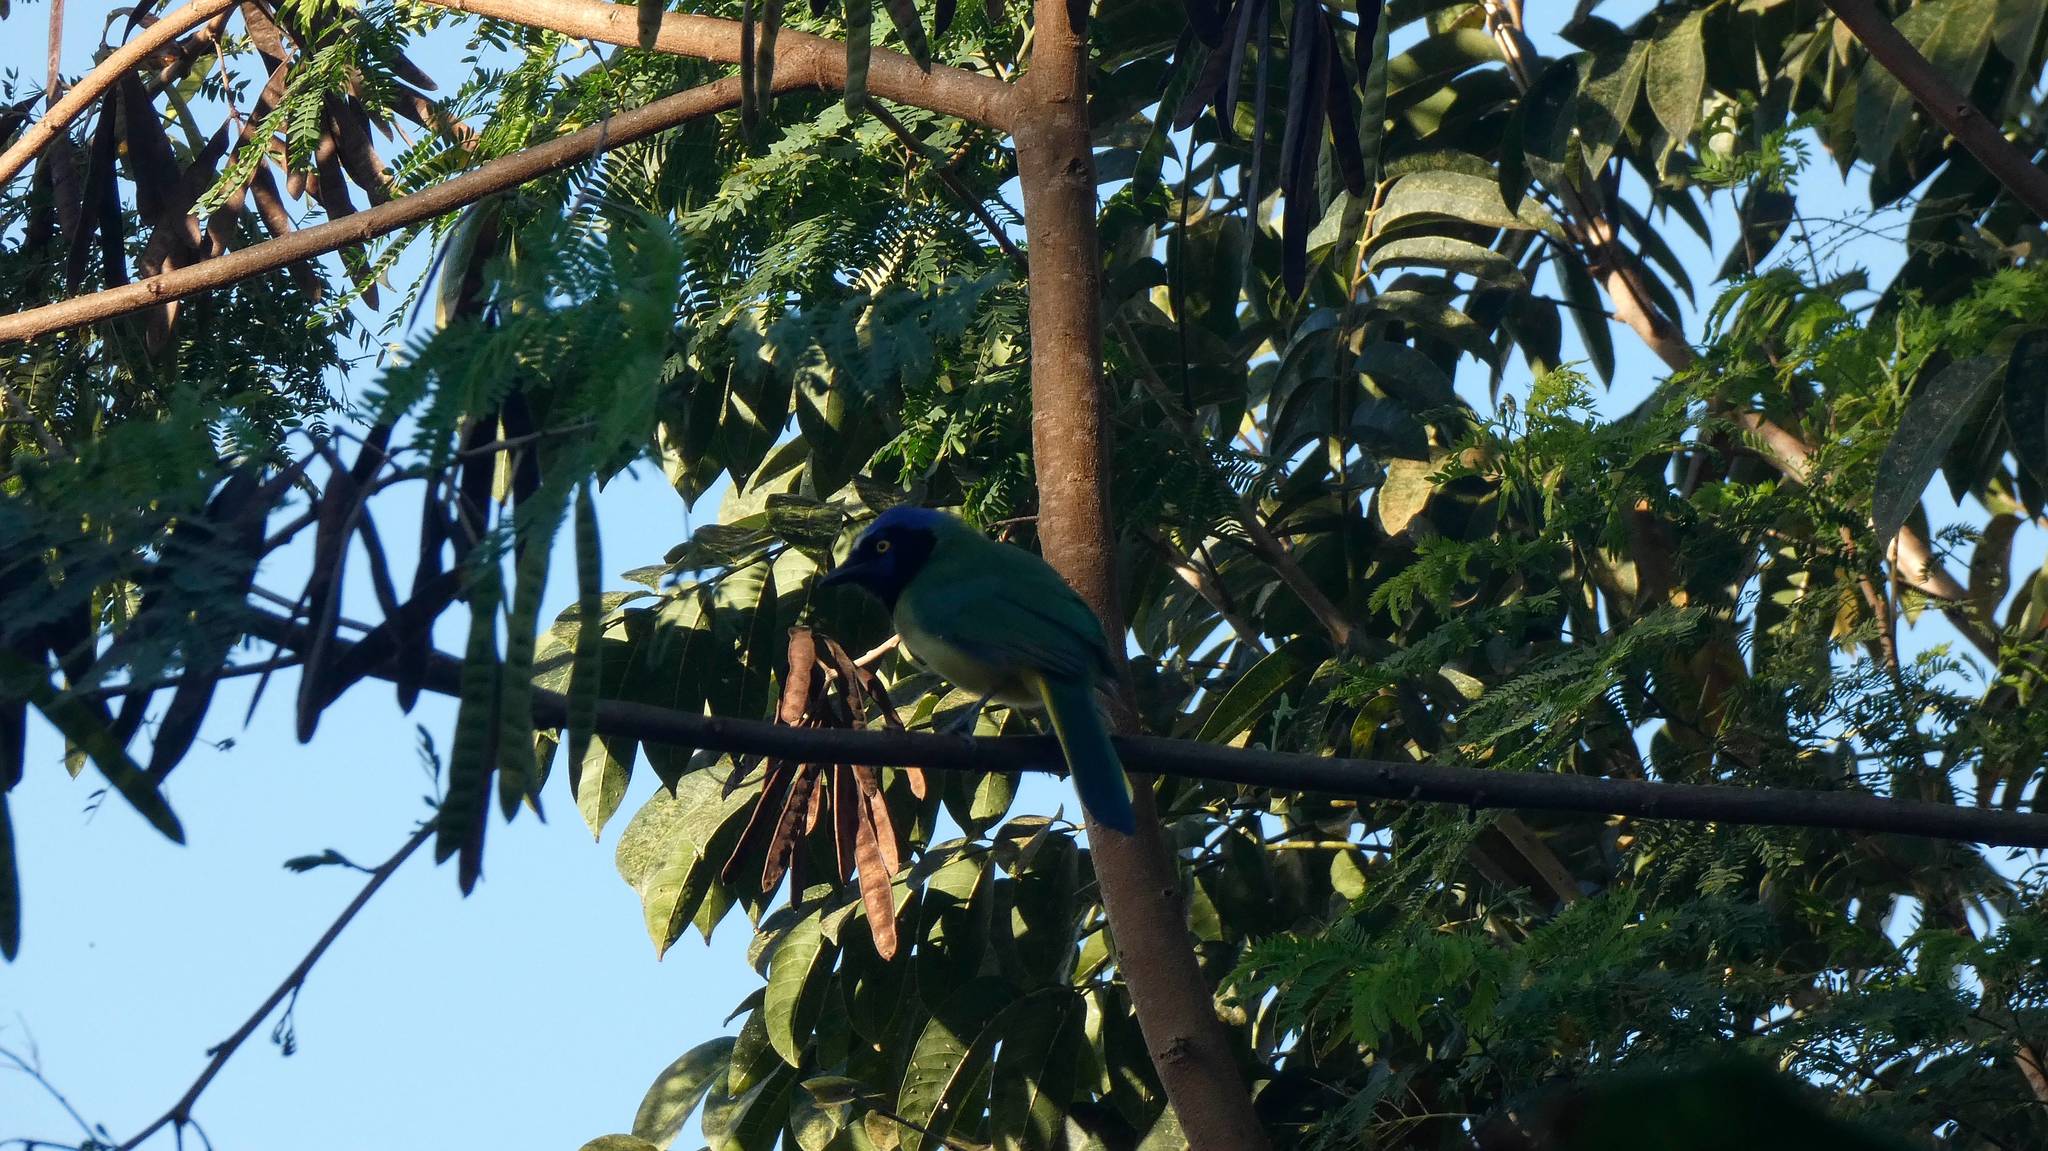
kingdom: Animalia
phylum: Chordata
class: Aves
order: Passeriformes
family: Corvidae
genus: Cyanocorax
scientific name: Cyanocorax yncas
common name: Green jay
